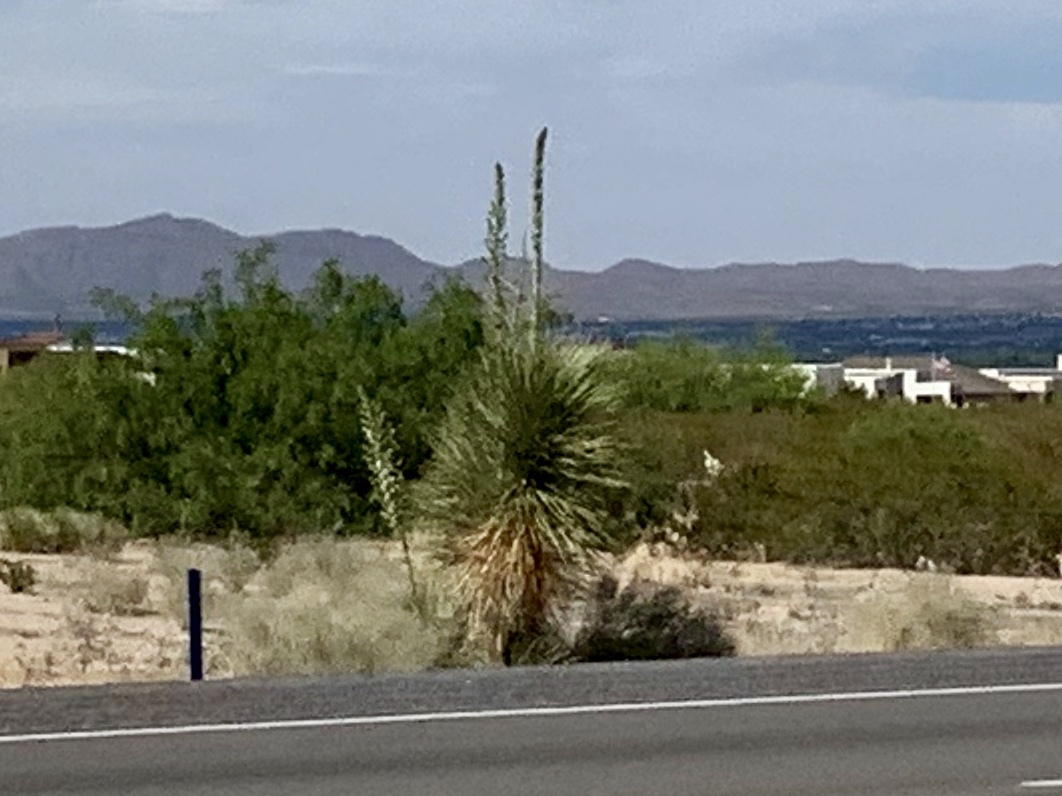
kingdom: Plantae
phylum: Tracheophyta
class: Liliopsida
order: Asparagales
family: Asparagaceae
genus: Yucca
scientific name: Yucca elata
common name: Palmella
